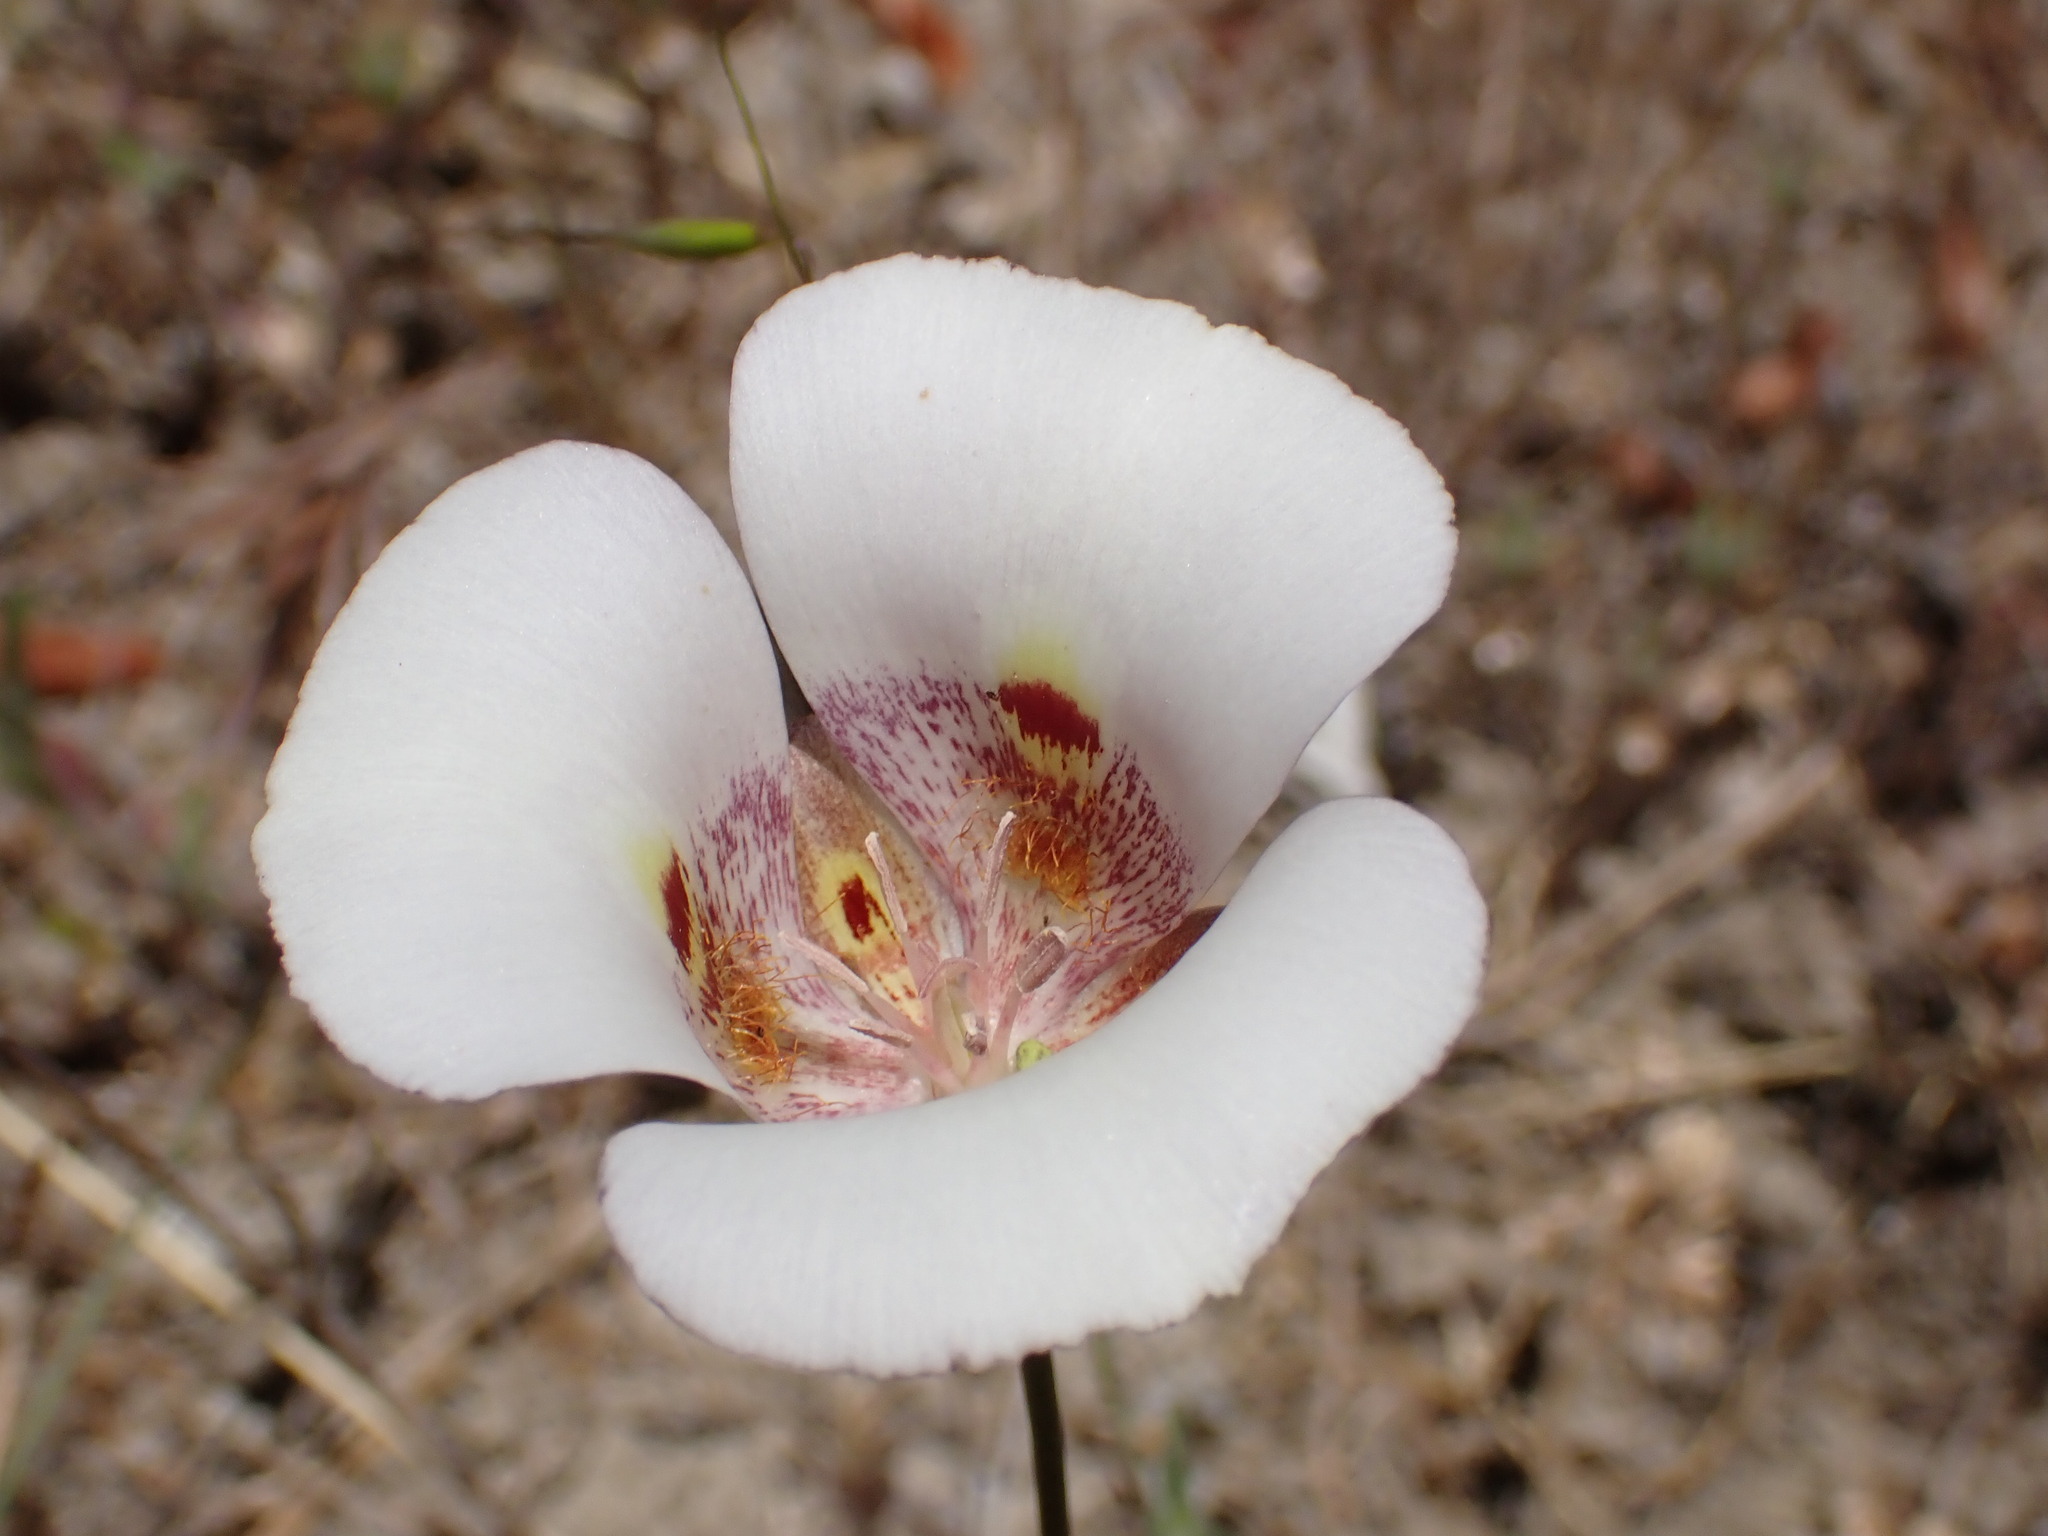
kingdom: Plantae
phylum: Tracheophyta
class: Liliopsida
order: Liliales
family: Liliaceae
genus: Calochortus
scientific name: Calochortus argillosus
